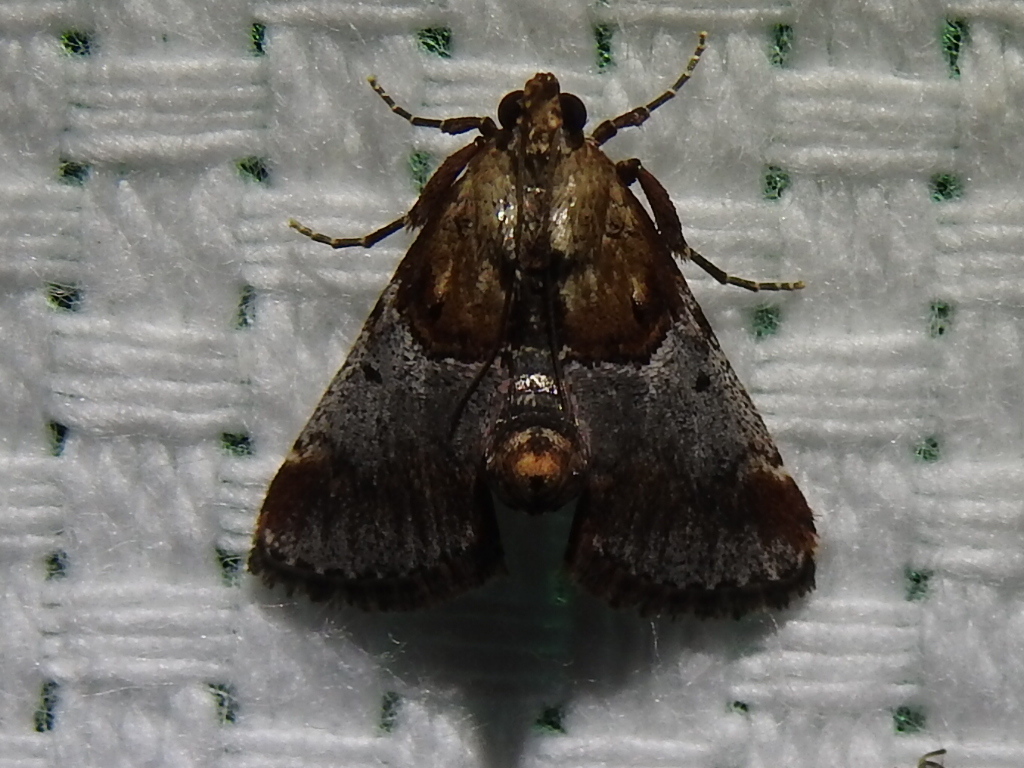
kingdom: Animalia
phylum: Arthropoda
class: Insecta
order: Lepidoptera
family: Pyralidae
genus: Cacozelia
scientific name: Cacozelia basiochrealis
